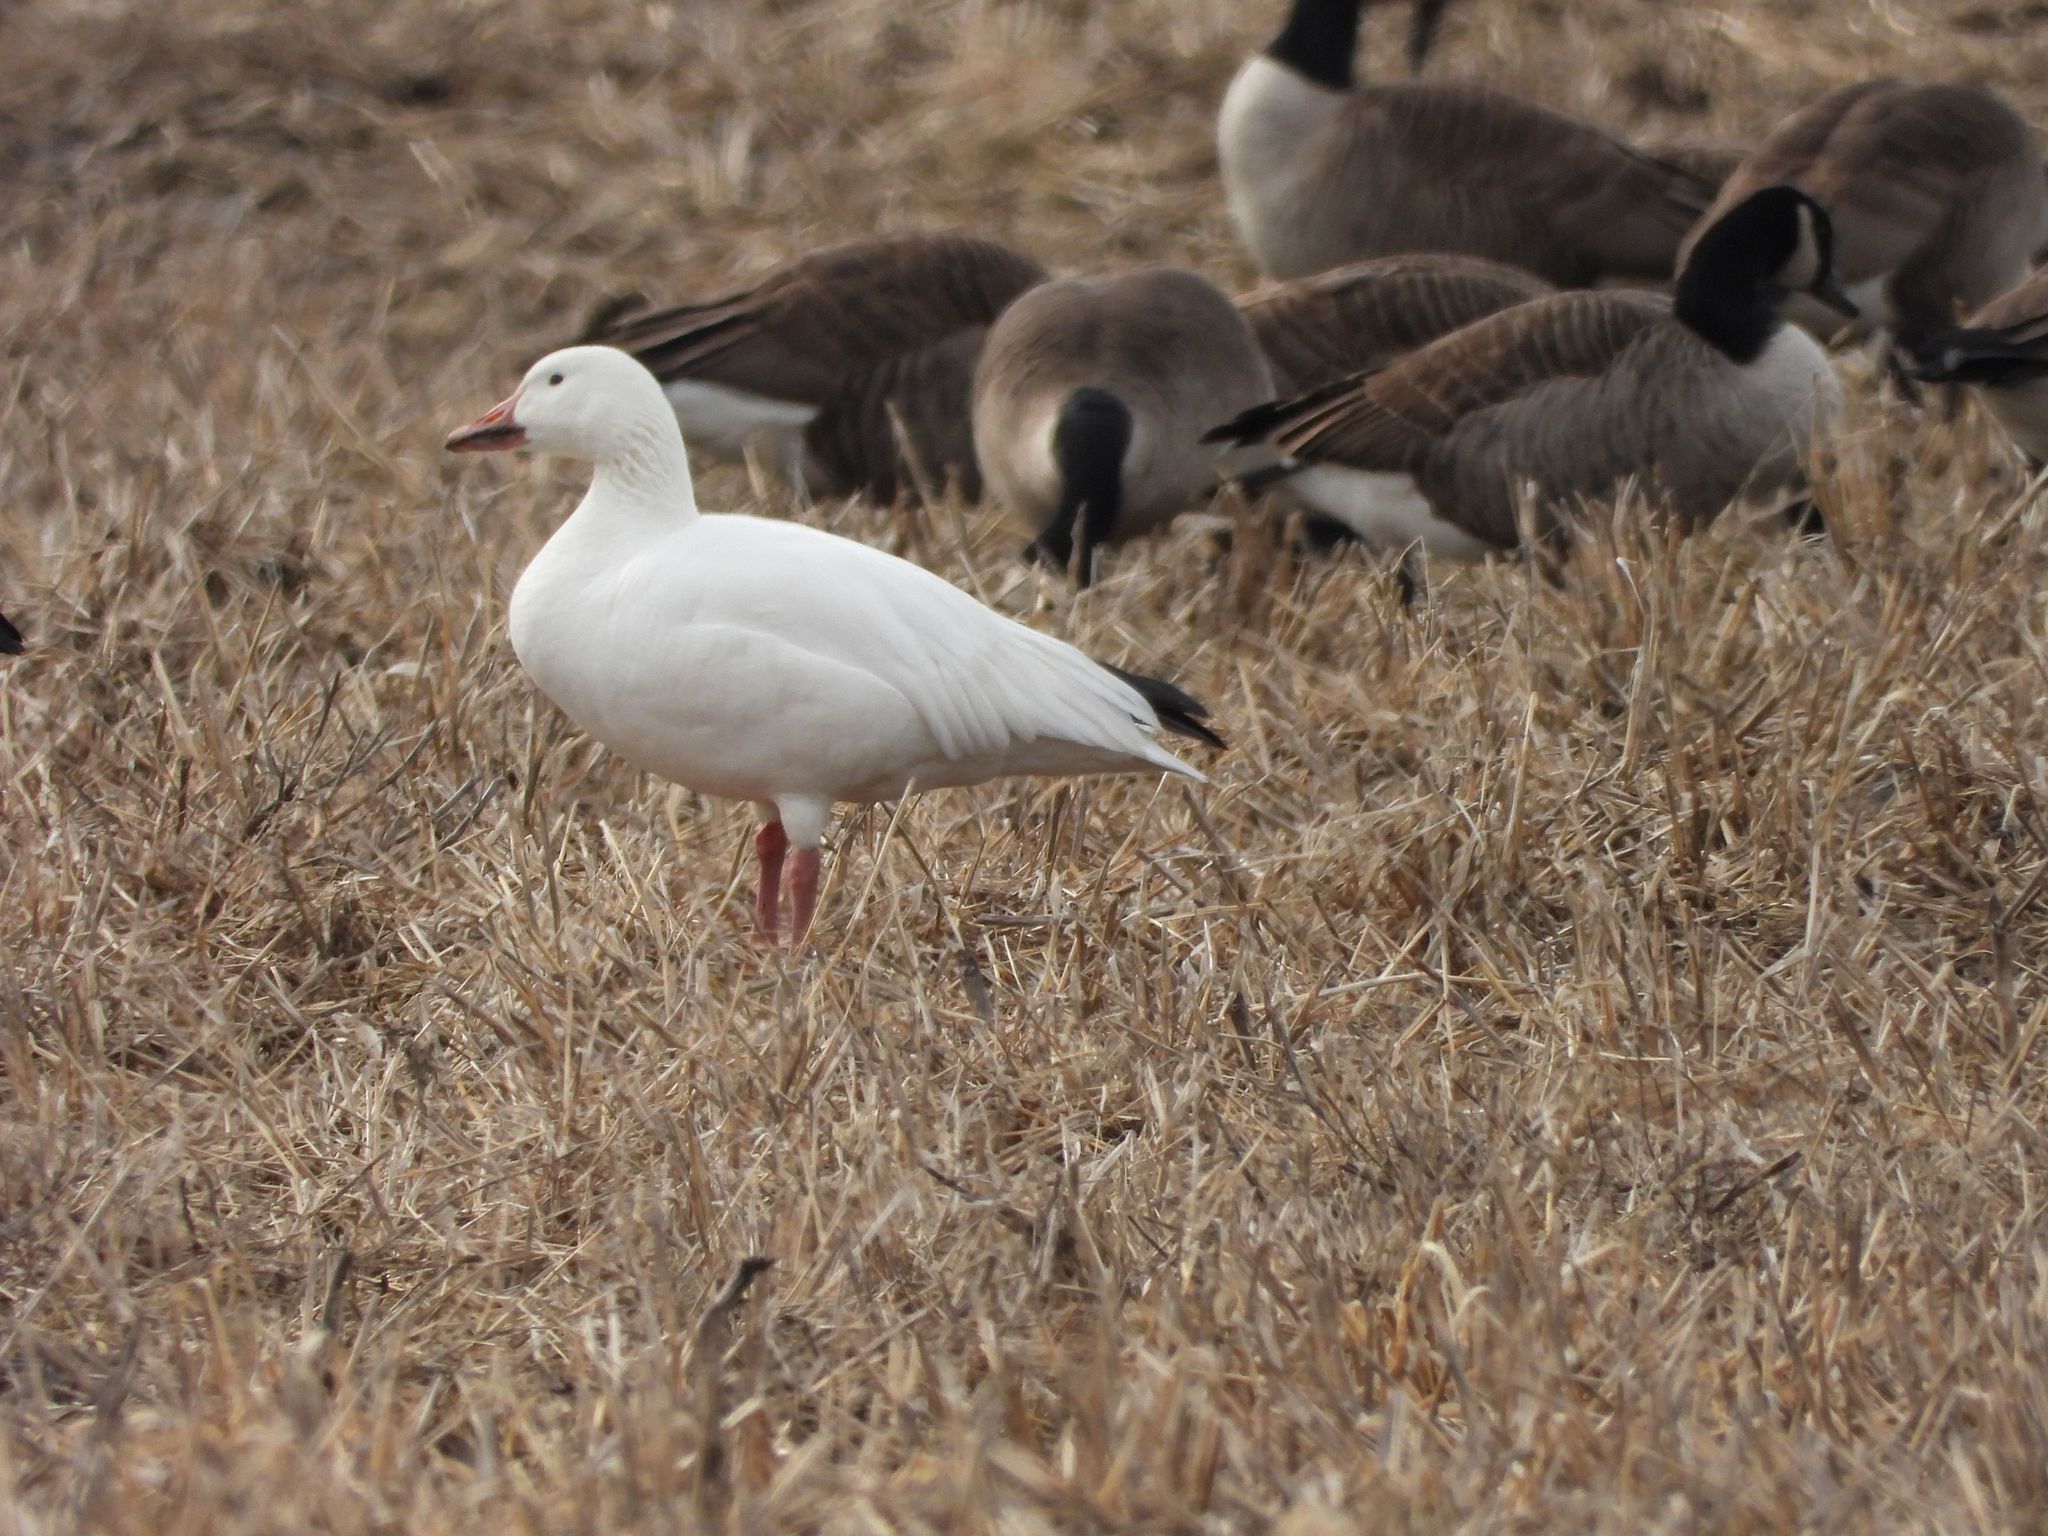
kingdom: Animalia
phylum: Chordata
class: Aves
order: Anseriformes
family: Anatidae
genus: Anser
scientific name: Anser caerulescens
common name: Snow goose
